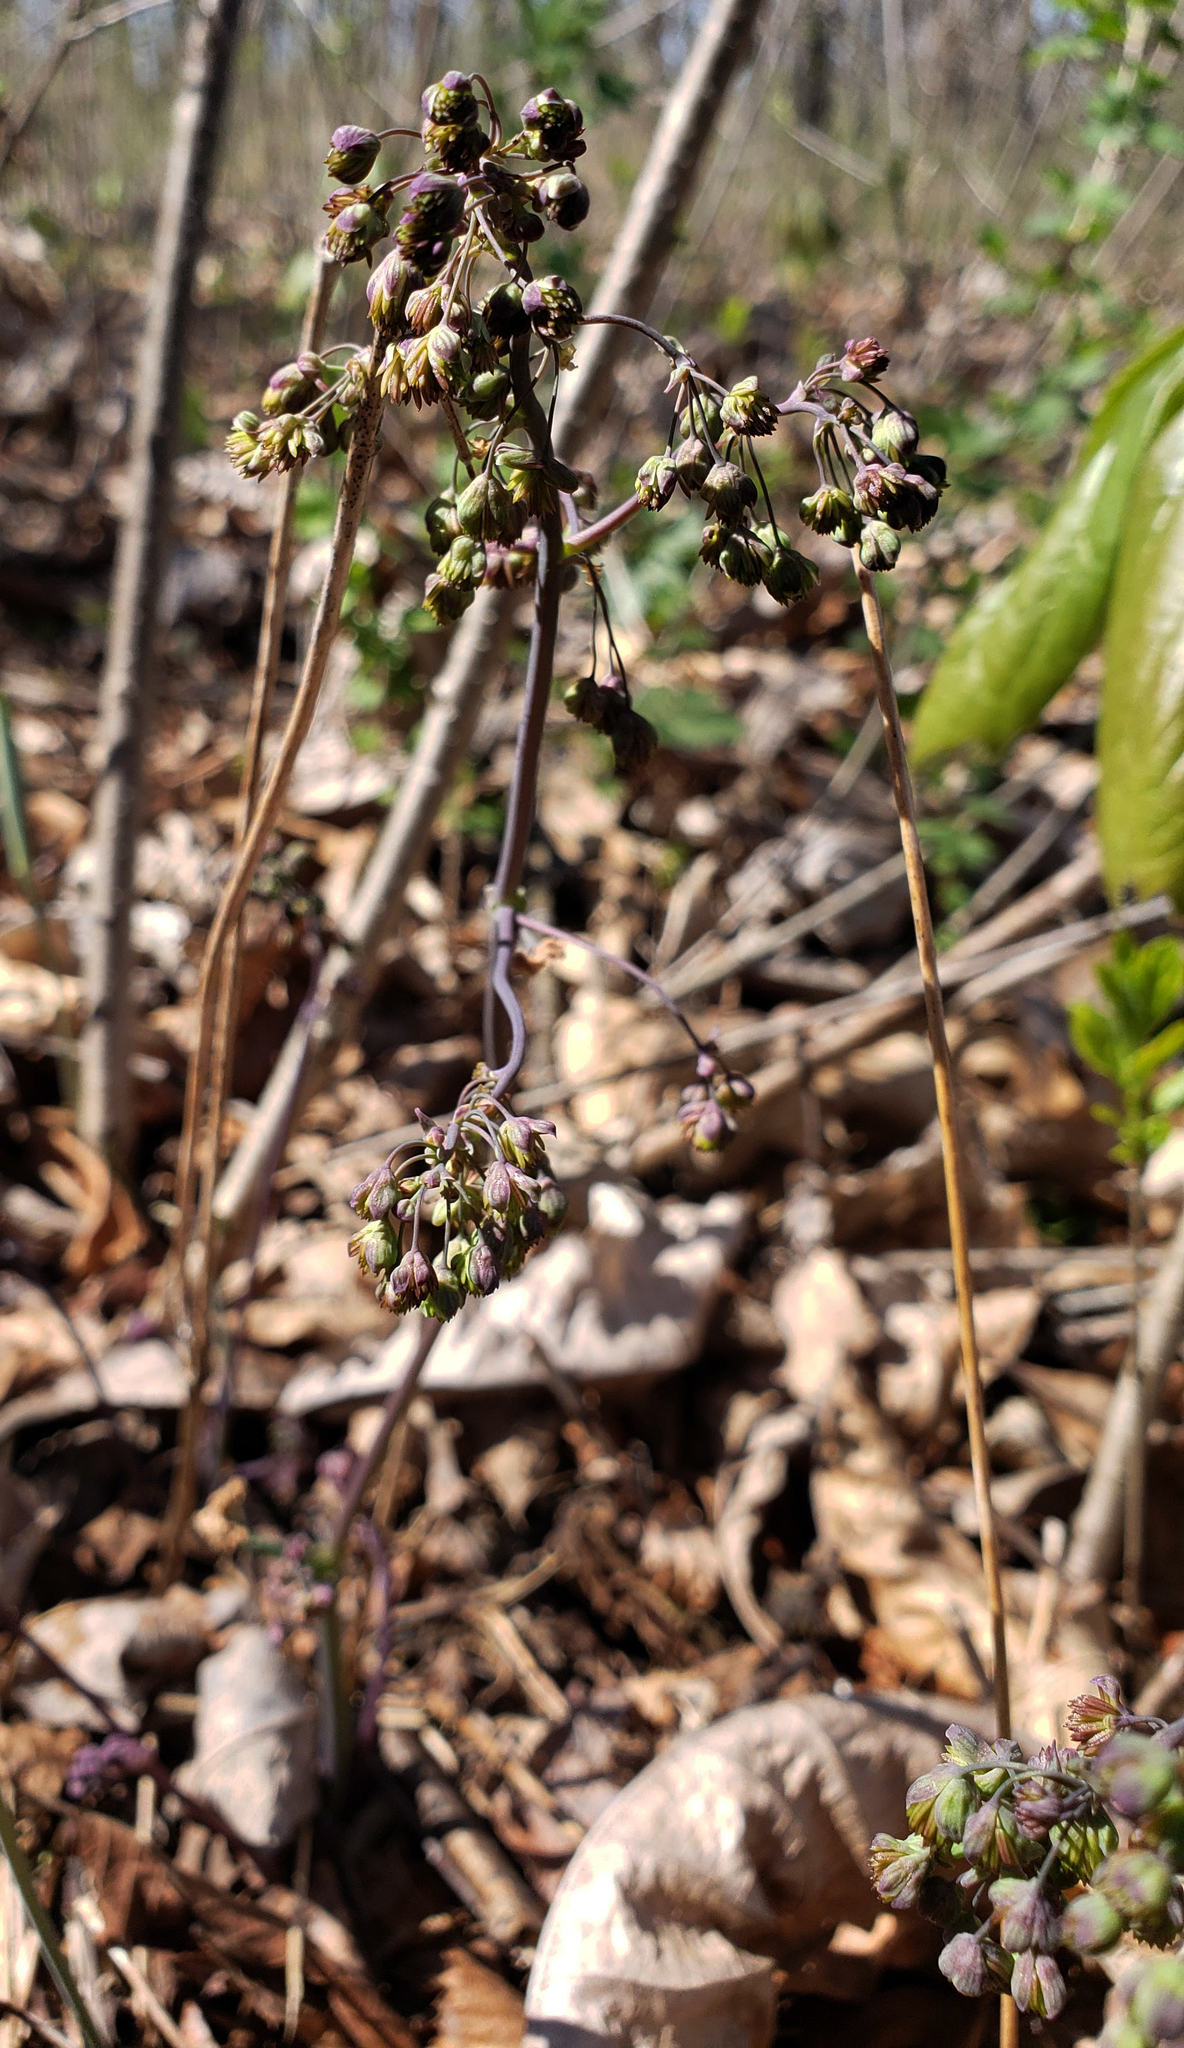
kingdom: Plantae
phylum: Tracheophyta
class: Magnoliopsida
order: Ranunculales
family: Ranunculaceae
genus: Thalictrum
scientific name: Thalictrum dioicum
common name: Early meadow-rue
